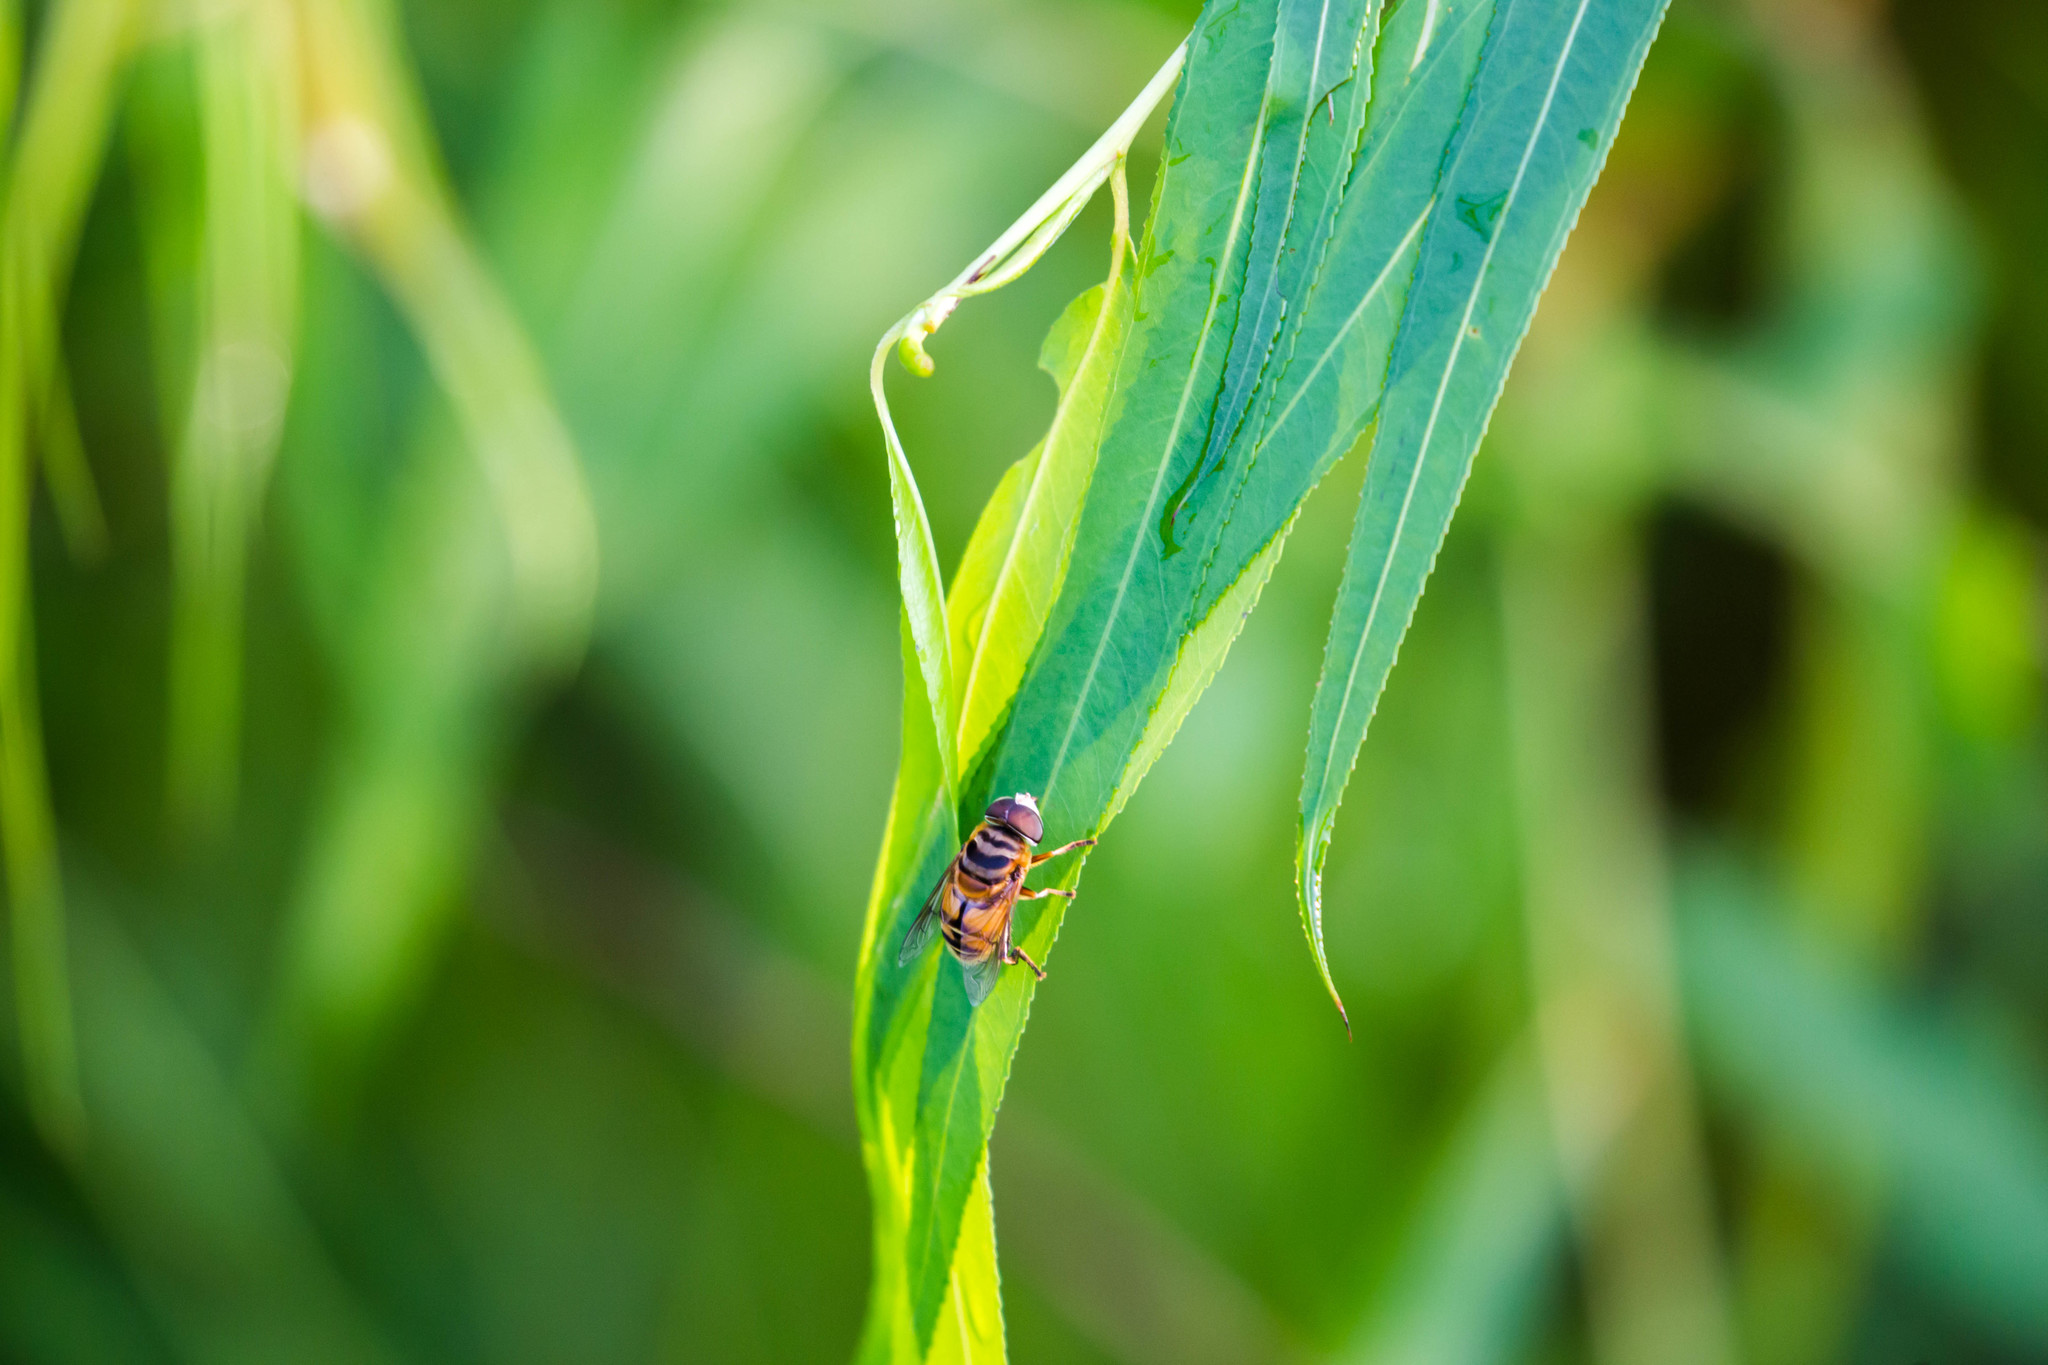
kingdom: Animalia
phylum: Arthropoda
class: Insecta
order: Diptera
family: Syrphidae
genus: Palpada
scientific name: Palpada vinetorum
